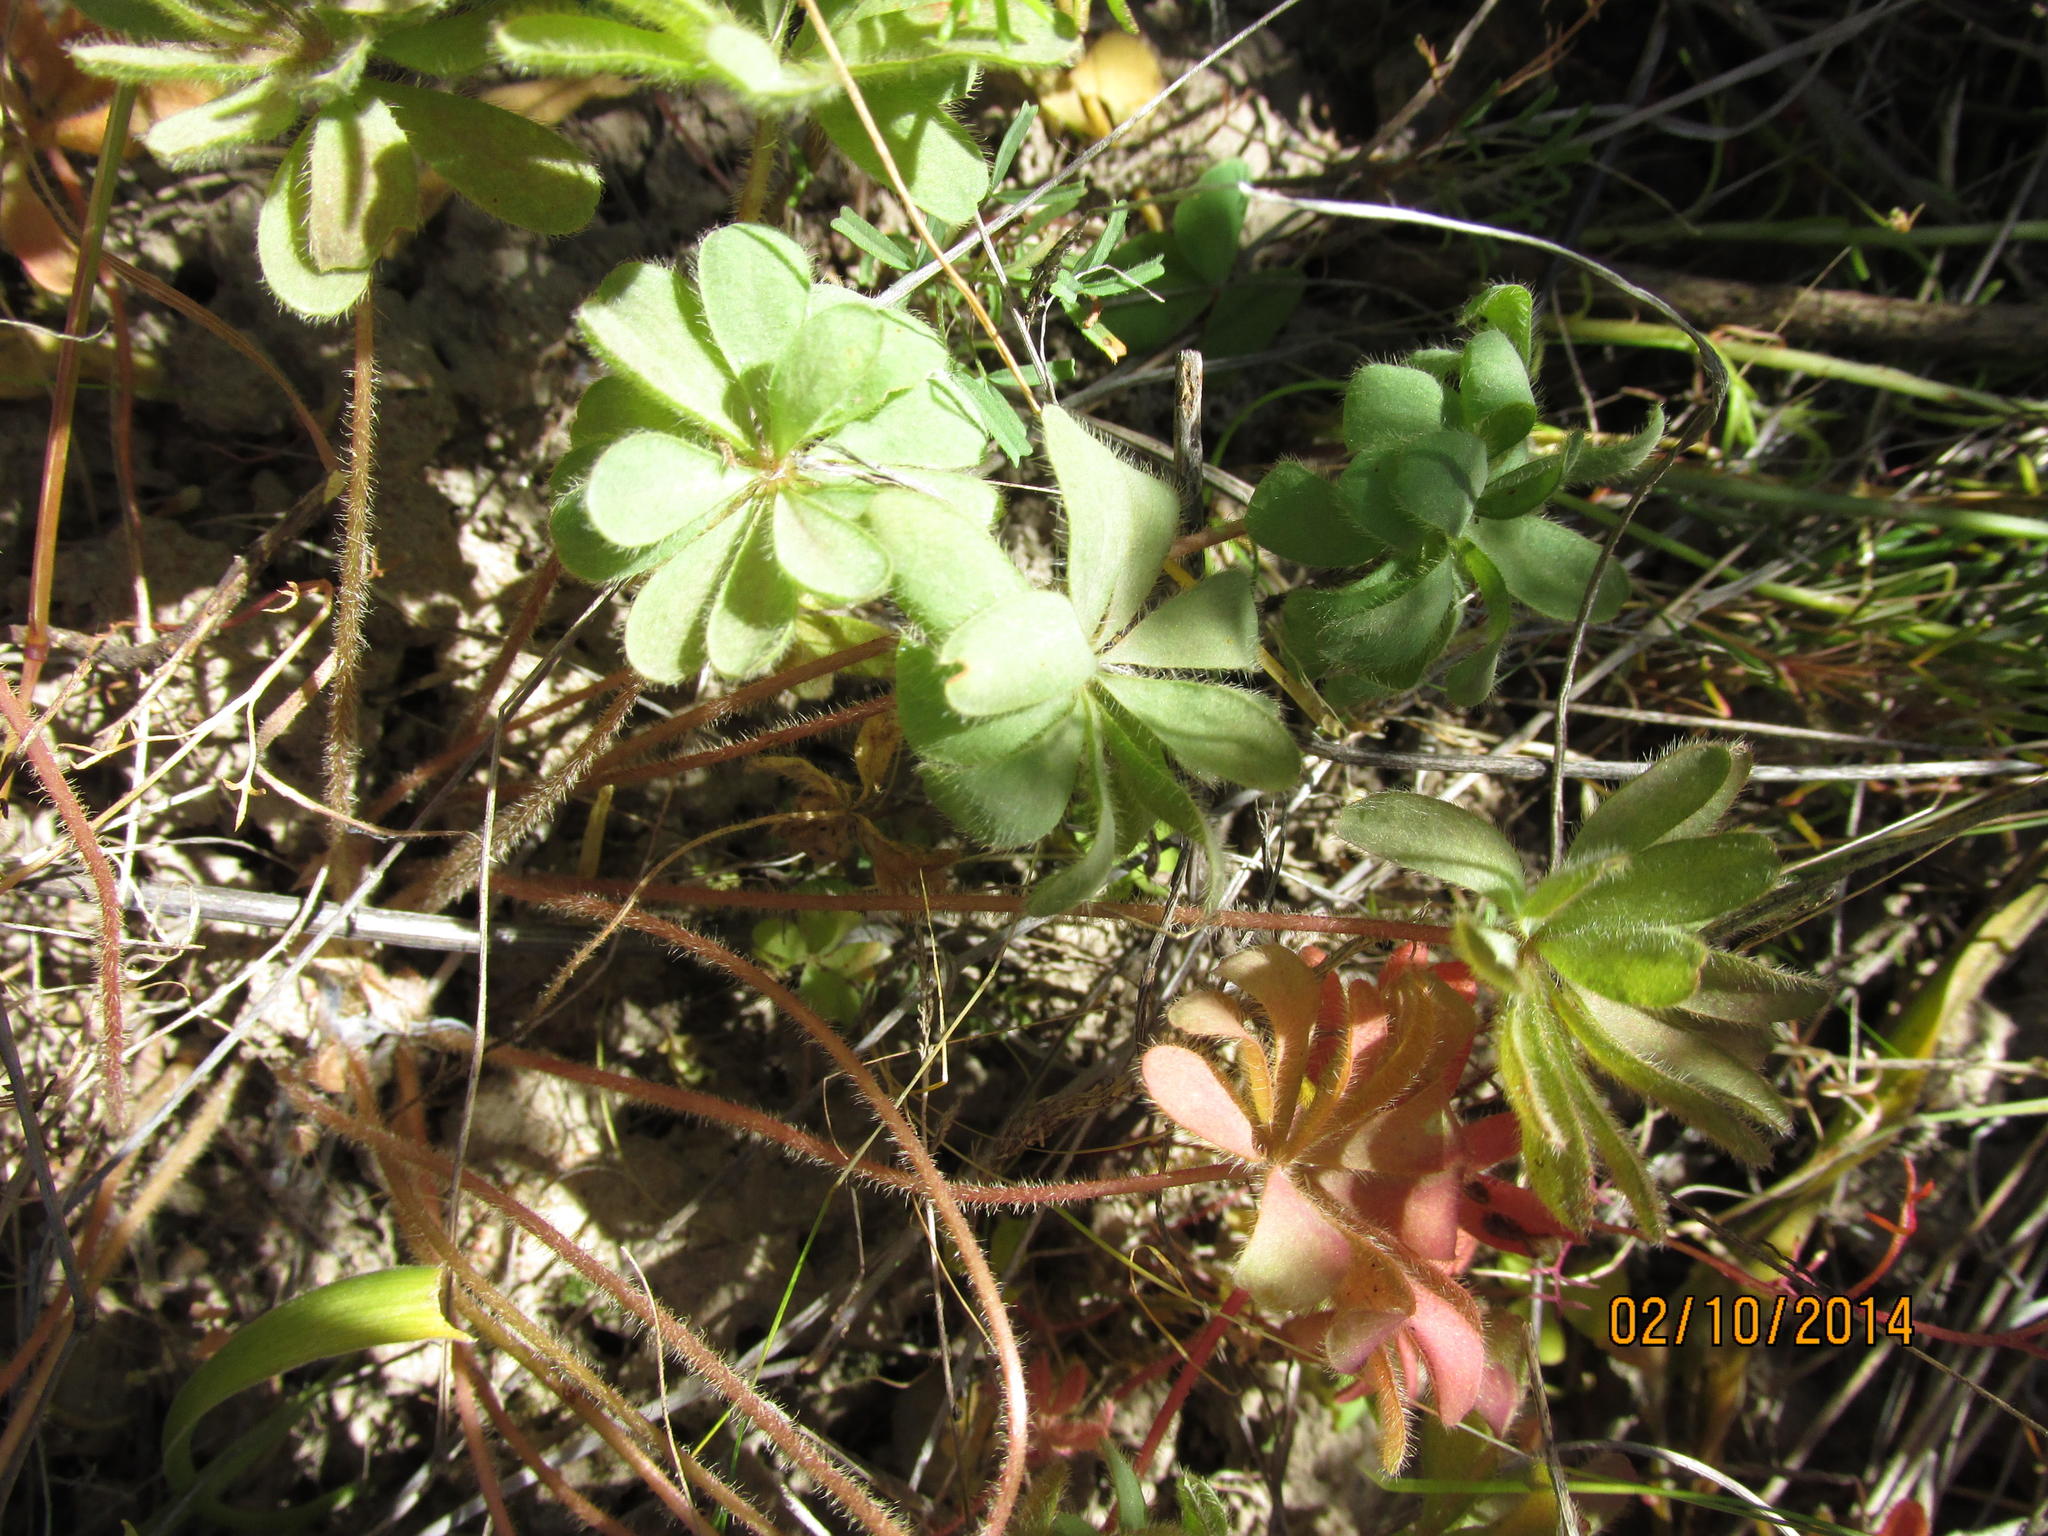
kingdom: Plantae
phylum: Tracheophyta
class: Magnoliopsida
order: Oxalidales
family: Oxalidaceae
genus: Oxalis
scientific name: Oxalis tomentosa
